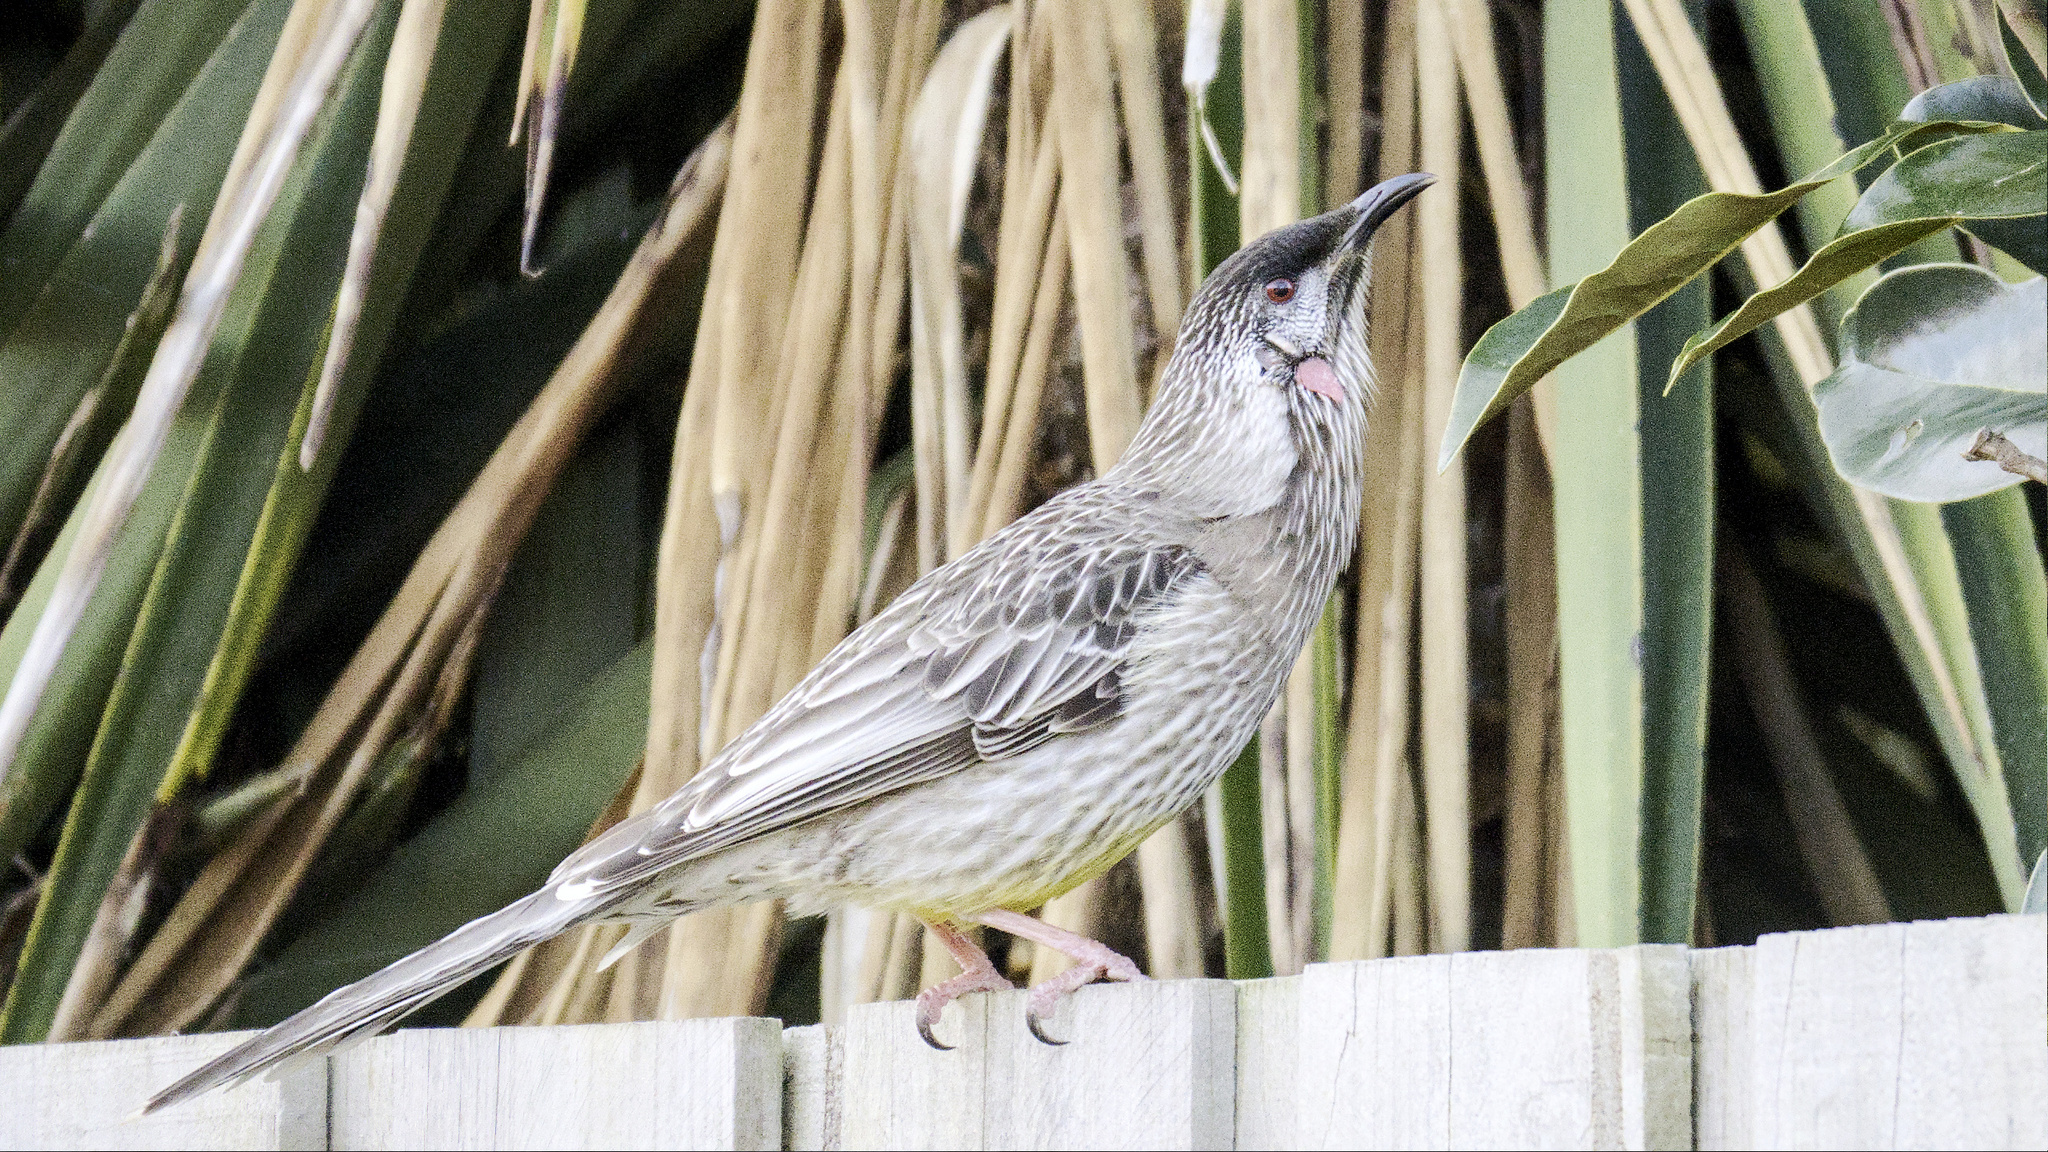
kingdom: Animalia
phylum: Chordata
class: Aves
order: Passeriformes
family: Meliphagidae
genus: Anthochaera
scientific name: Anthochaera carunculata
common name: Red wattlebird
